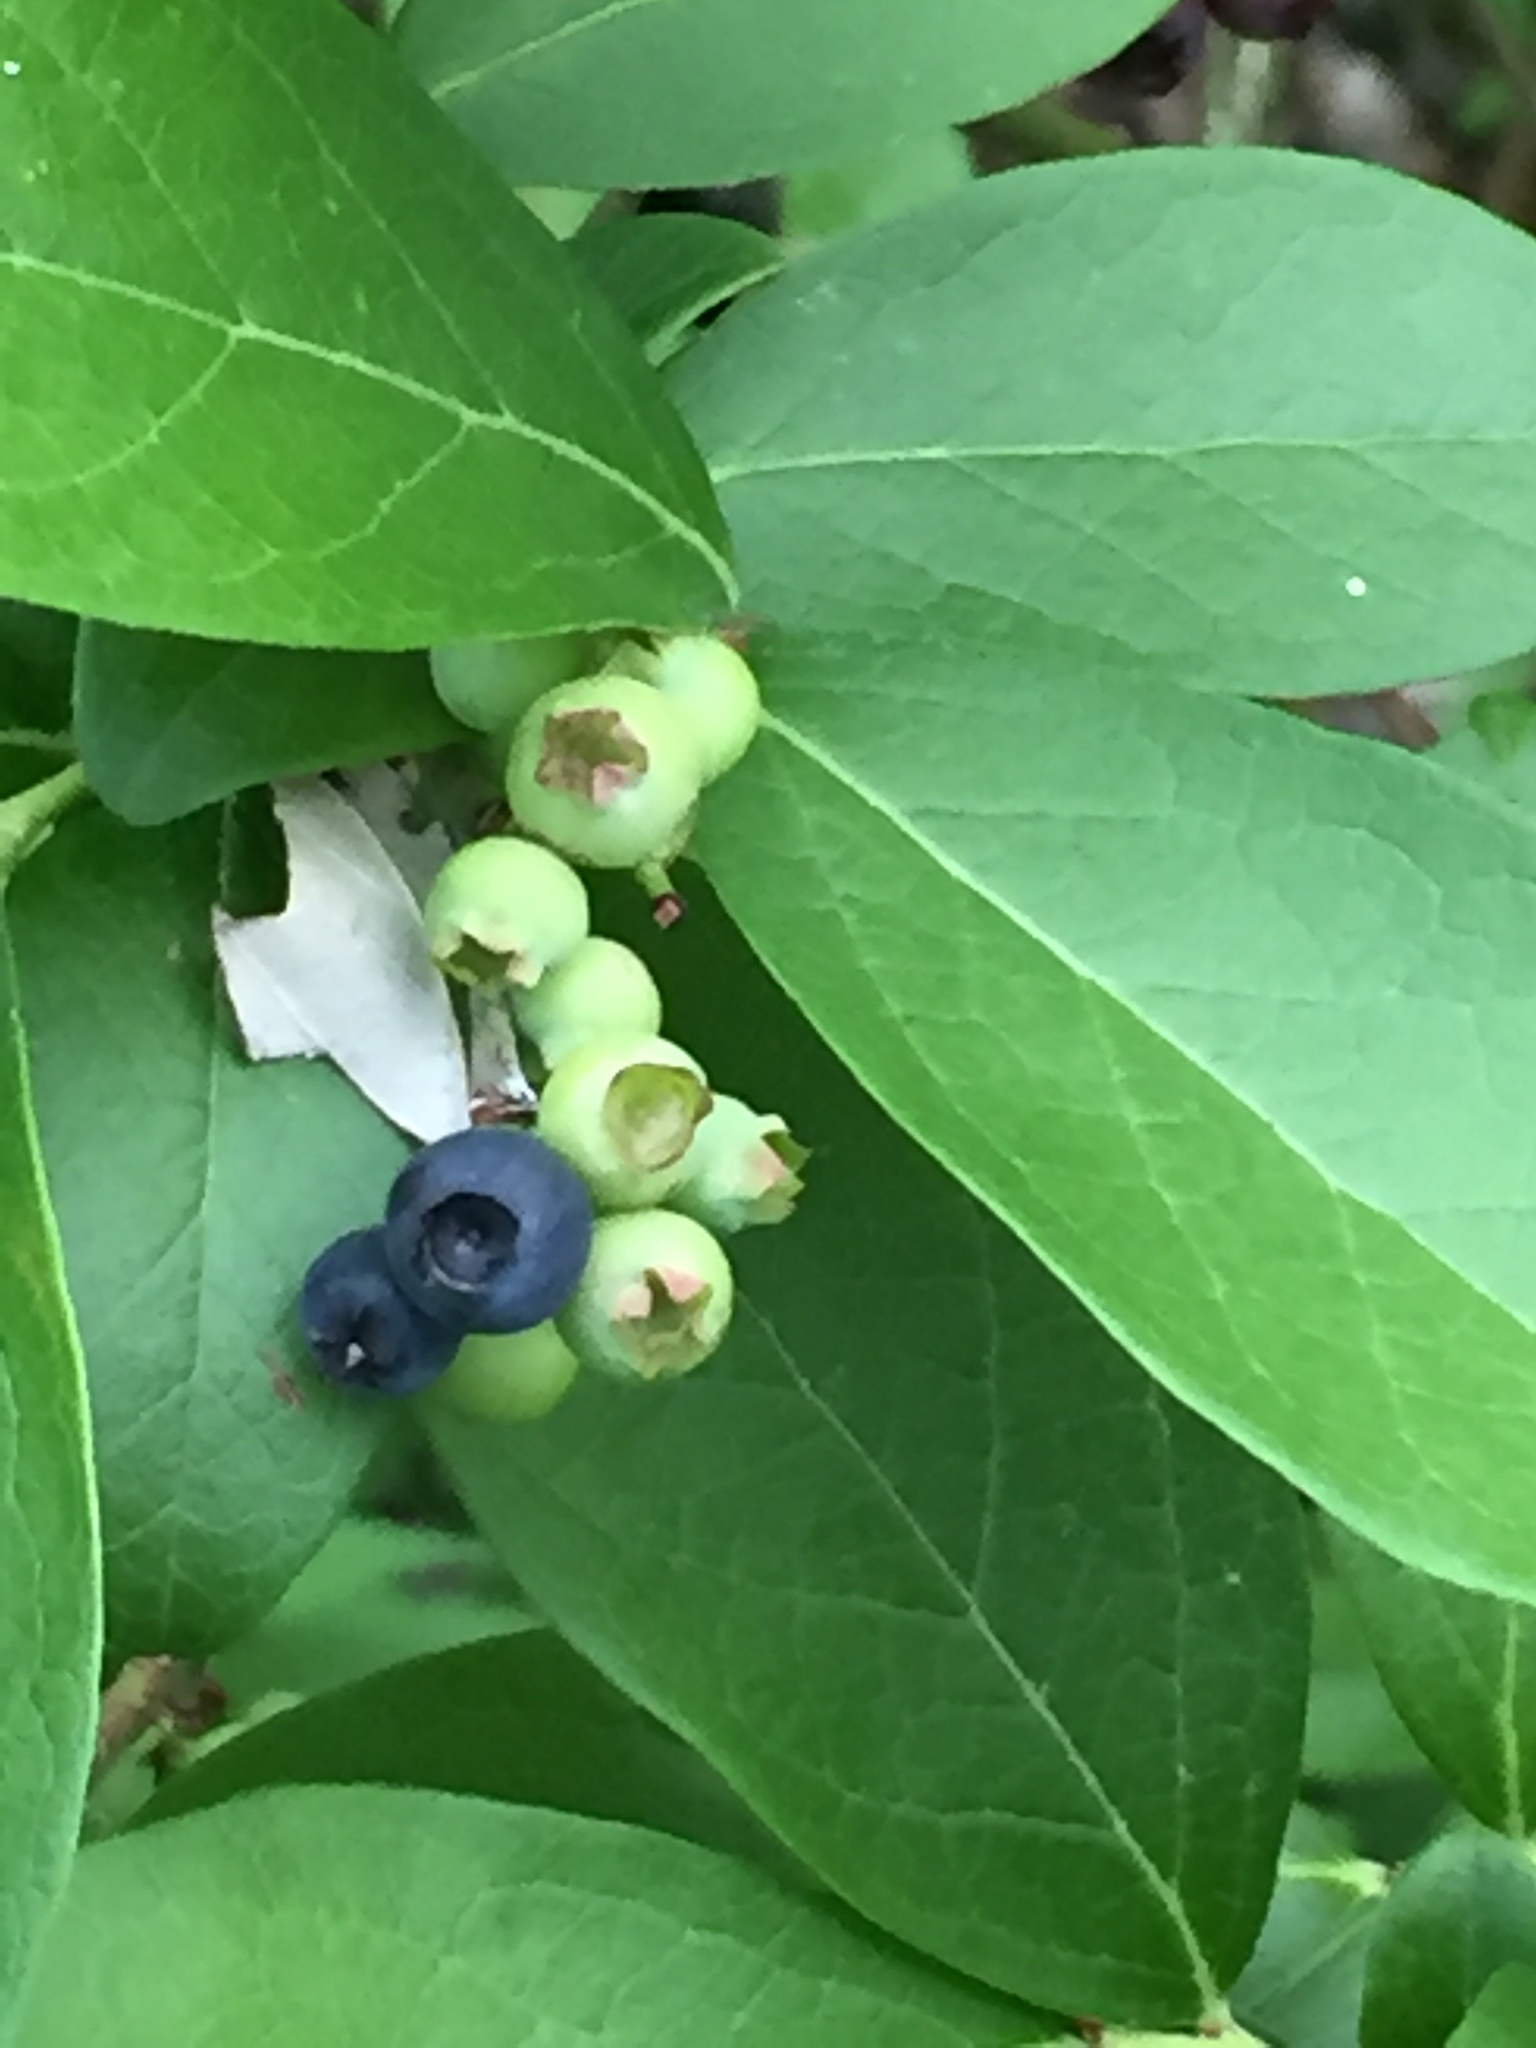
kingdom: Plantae
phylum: Tracheophyta
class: Magnoliopsida
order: Ericales
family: Ericaceae
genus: Vaccinium
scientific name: Vaccinium pallidum
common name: Blue ridge blueberry
